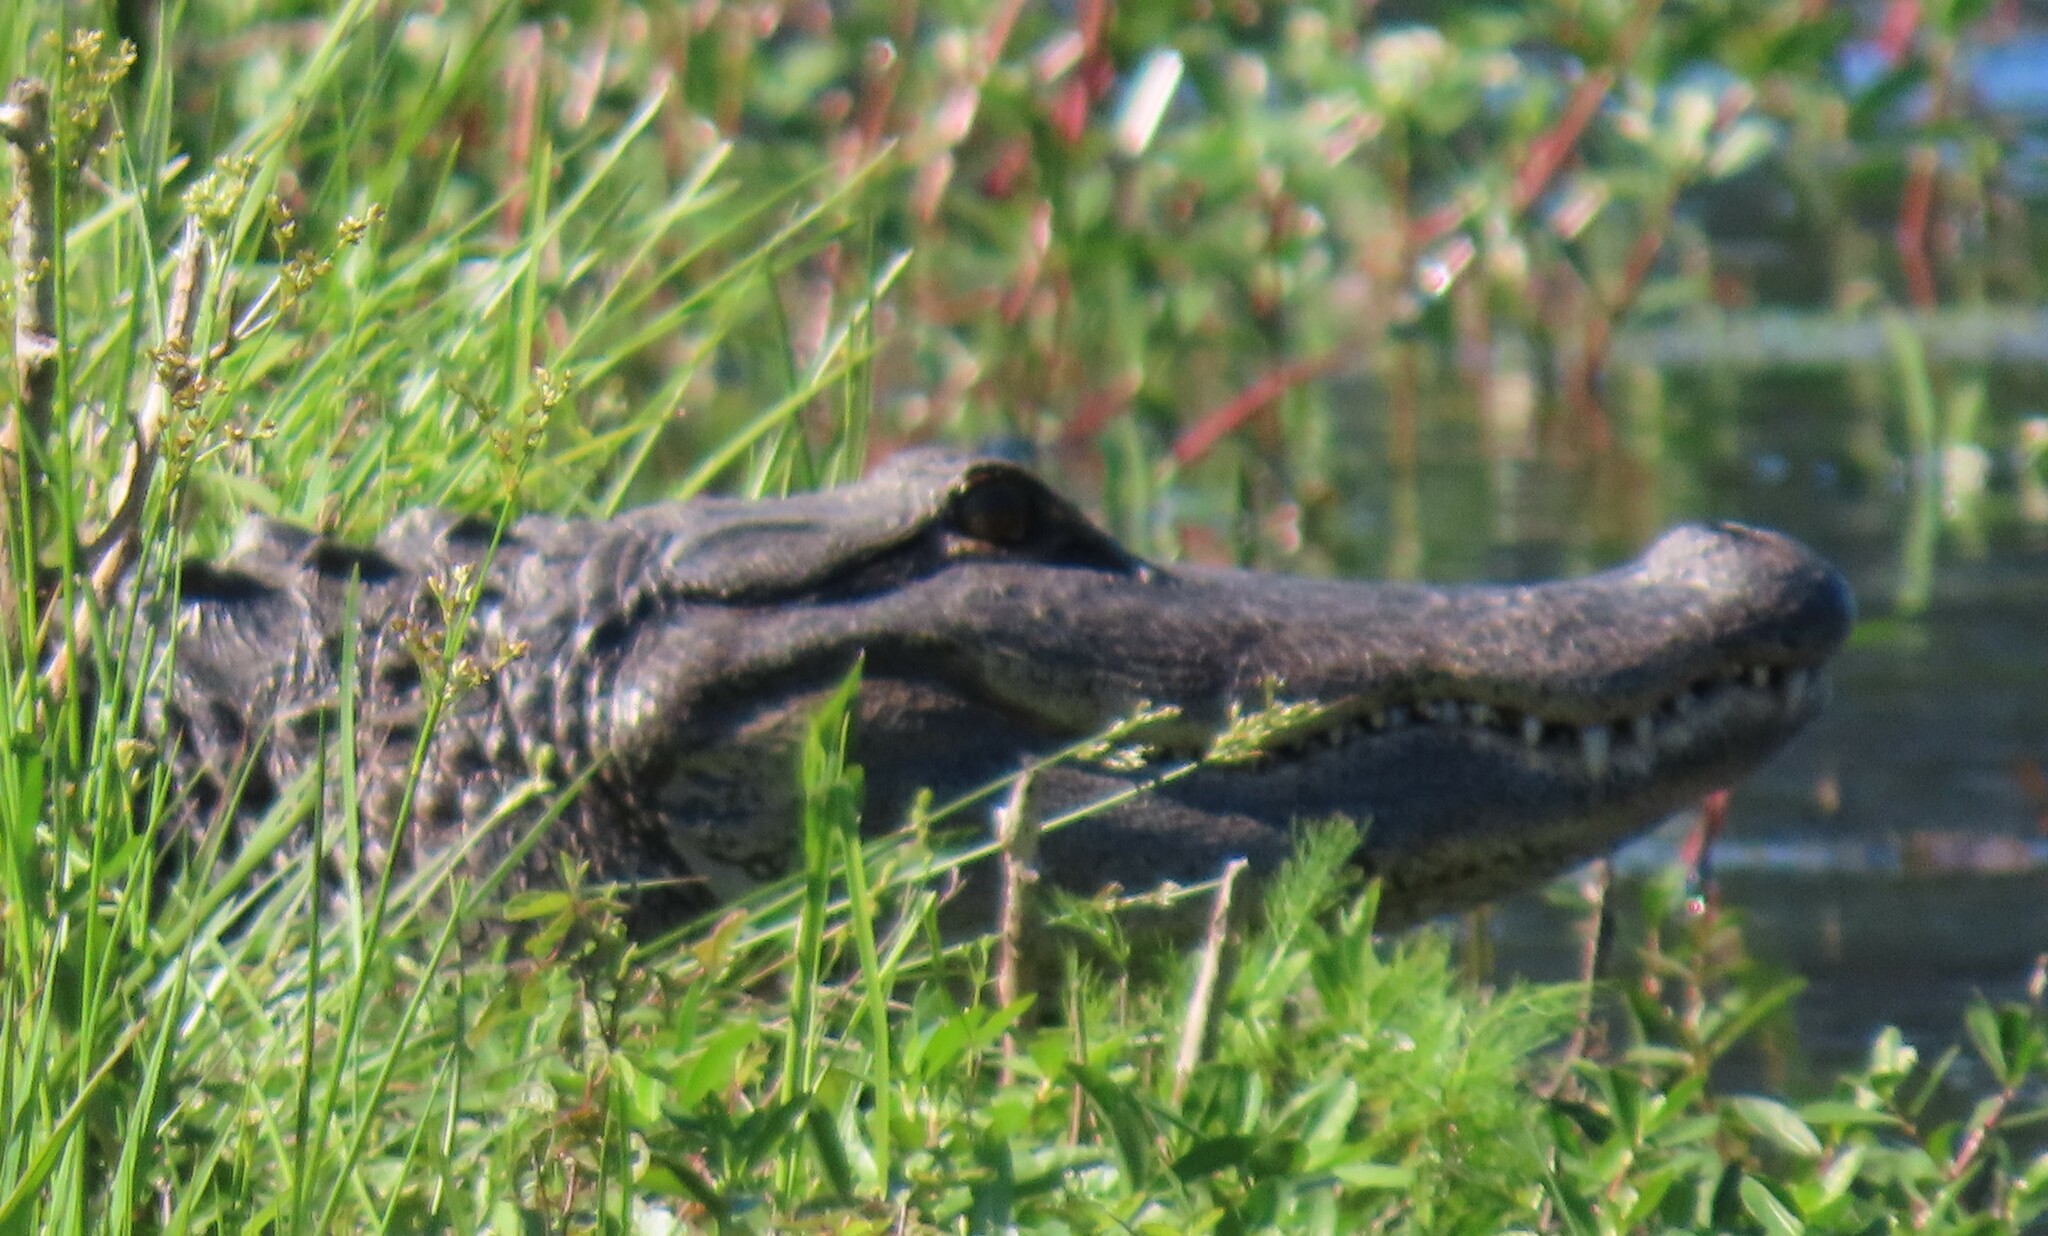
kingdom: Animalia
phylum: Chordata
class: Crocodylia
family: Alligatoridae
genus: Alligator
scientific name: Alligator mississippiensis
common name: American alligator
